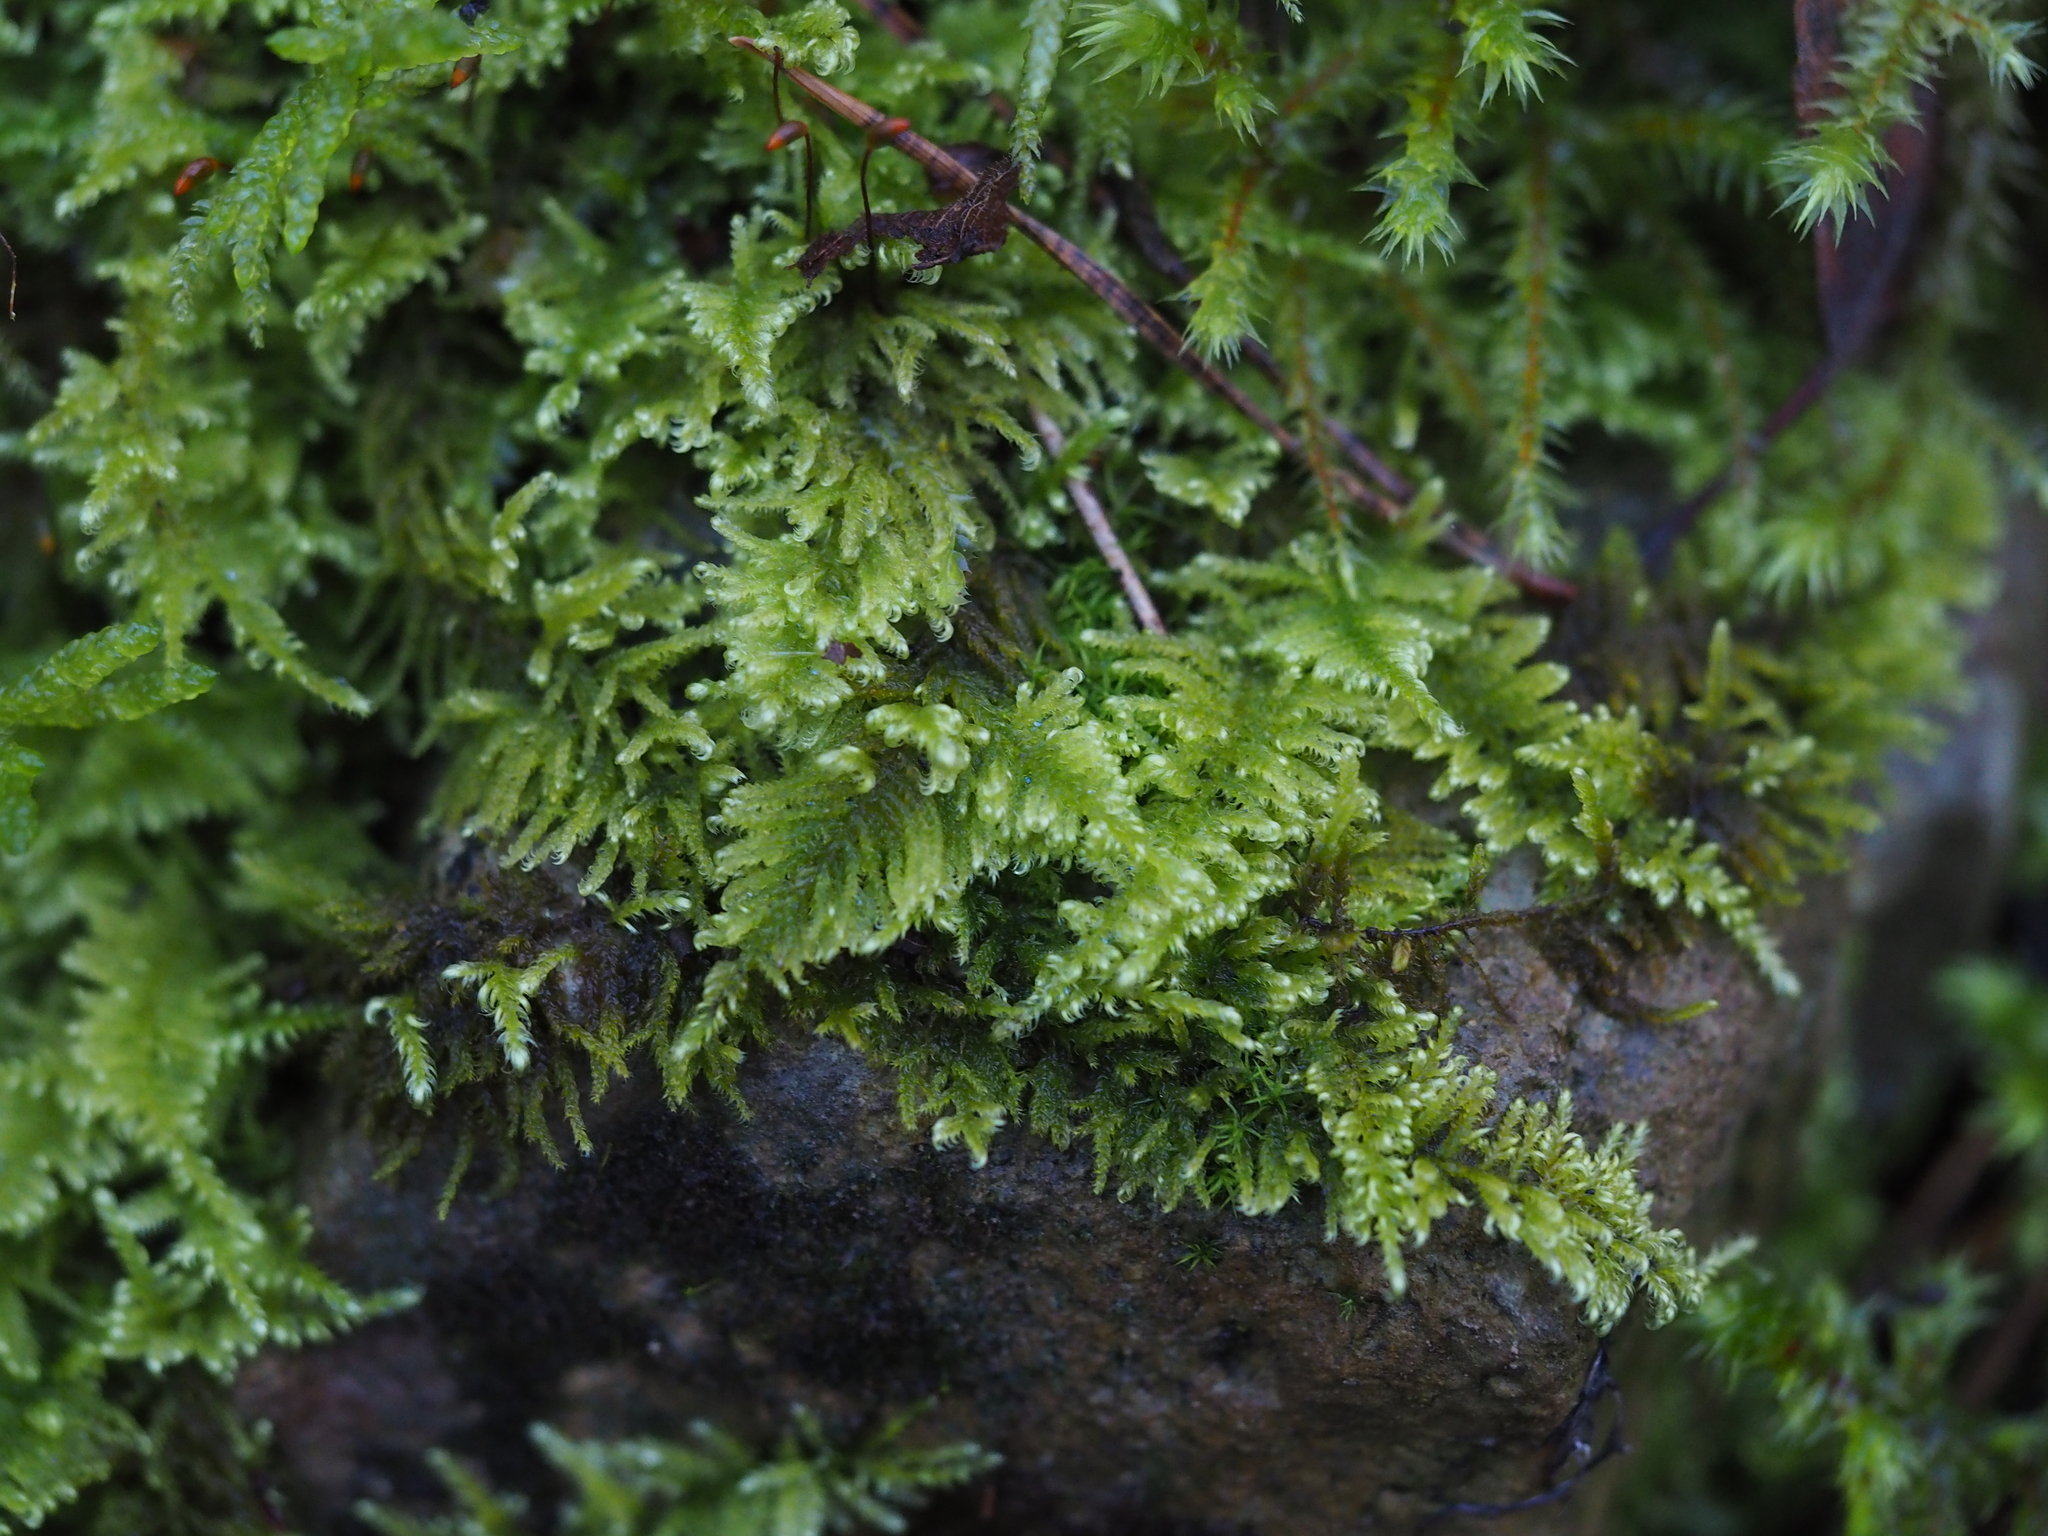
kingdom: Plantae
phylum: Bryophyta
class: Bryopsida
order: Hypnales
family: Myuriaceae
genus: Ctenidium
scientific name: Ctenidium molluscum
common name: Chalk comb-moss
